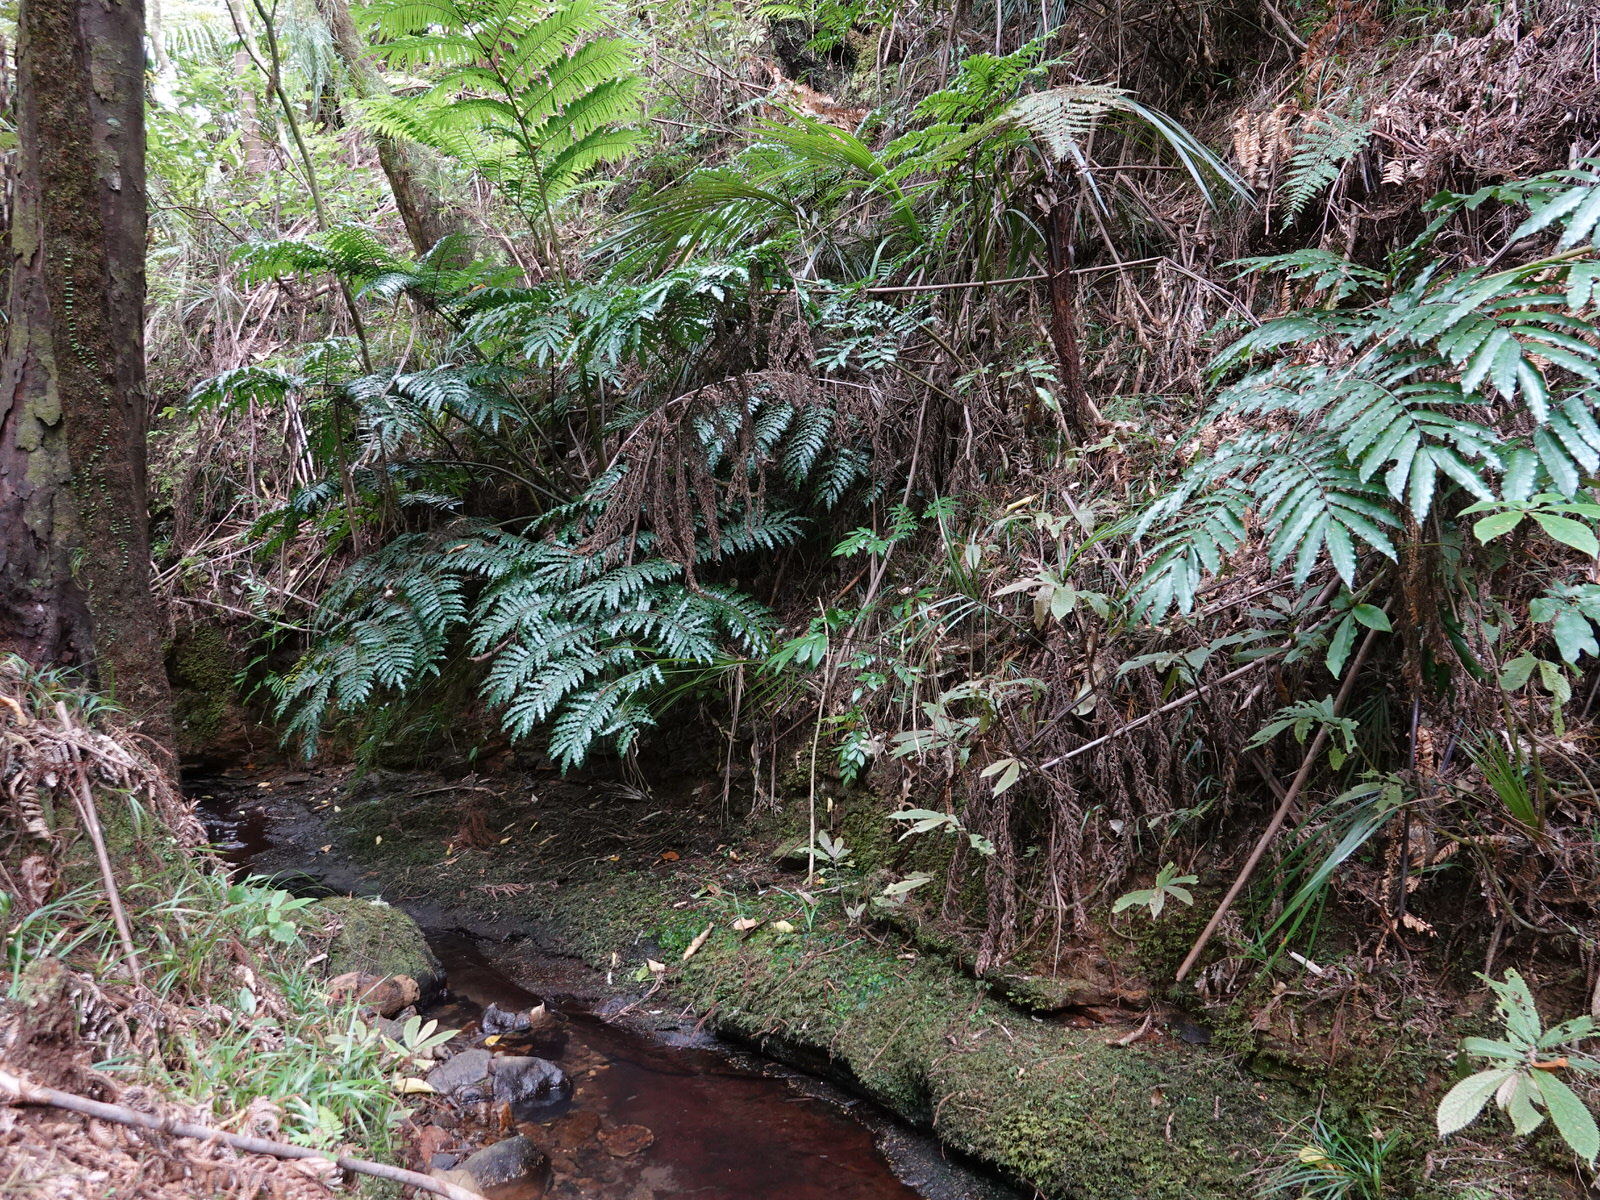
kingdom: Plantae
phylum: Tracheophyta
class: Polypodiopsida
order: Marattiales
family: Marattiaceae
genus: Ptisana
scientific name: Ptisana salicina
